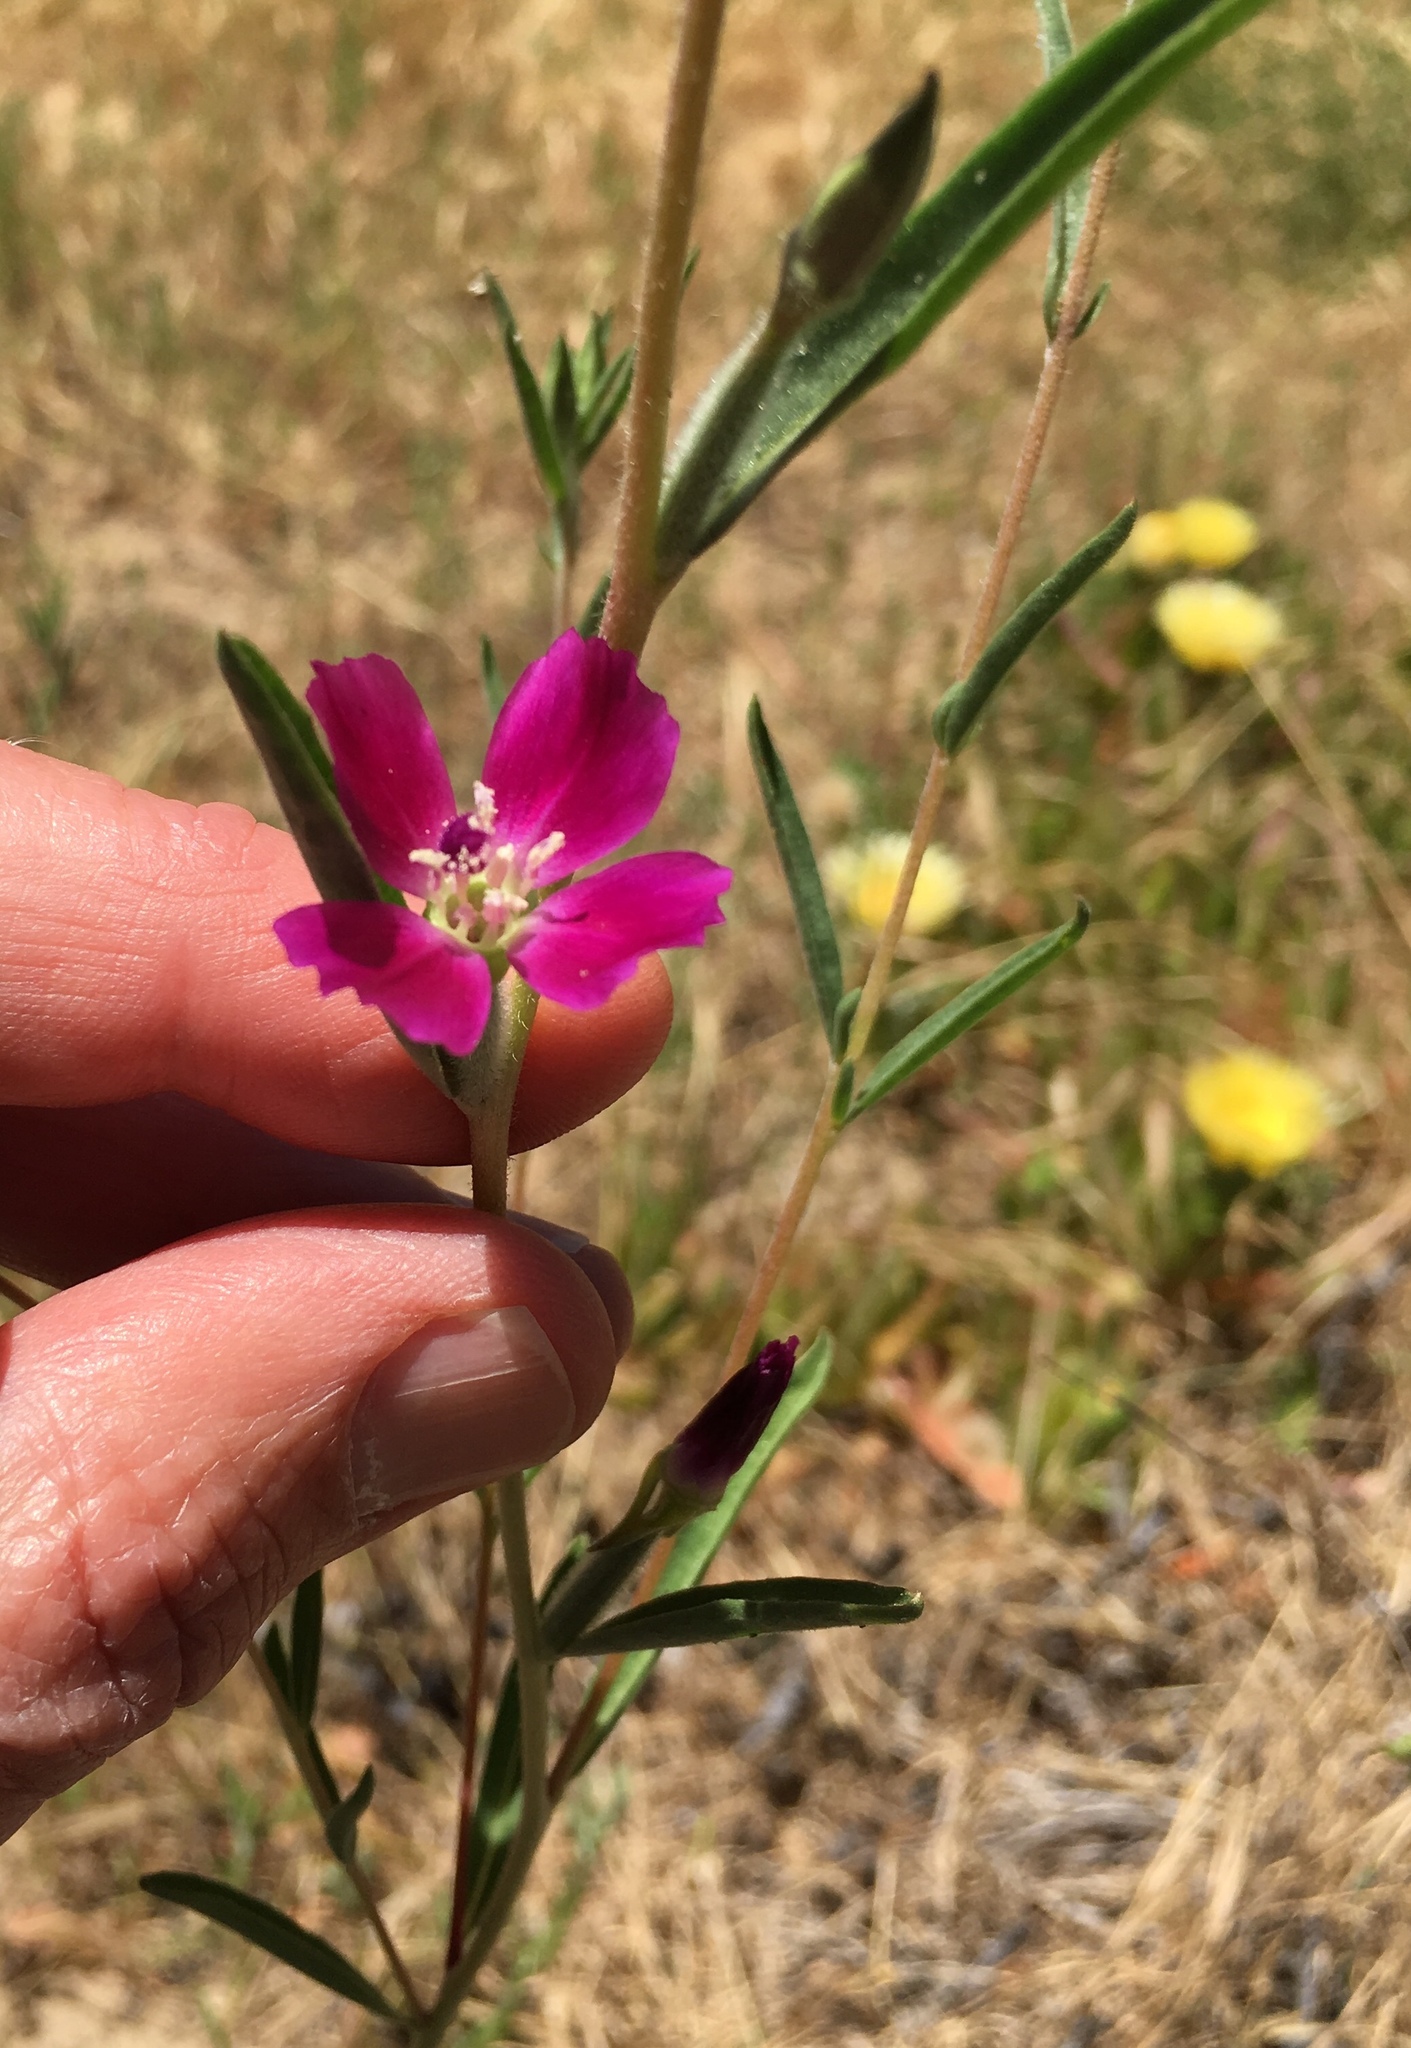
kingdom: Plantae
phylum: Tracheophyta
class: Magnoliopsida
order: Myrtales
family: Onagraceae
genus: Clarkia
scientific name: Clarkia purpurea
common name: Purple clarkia
